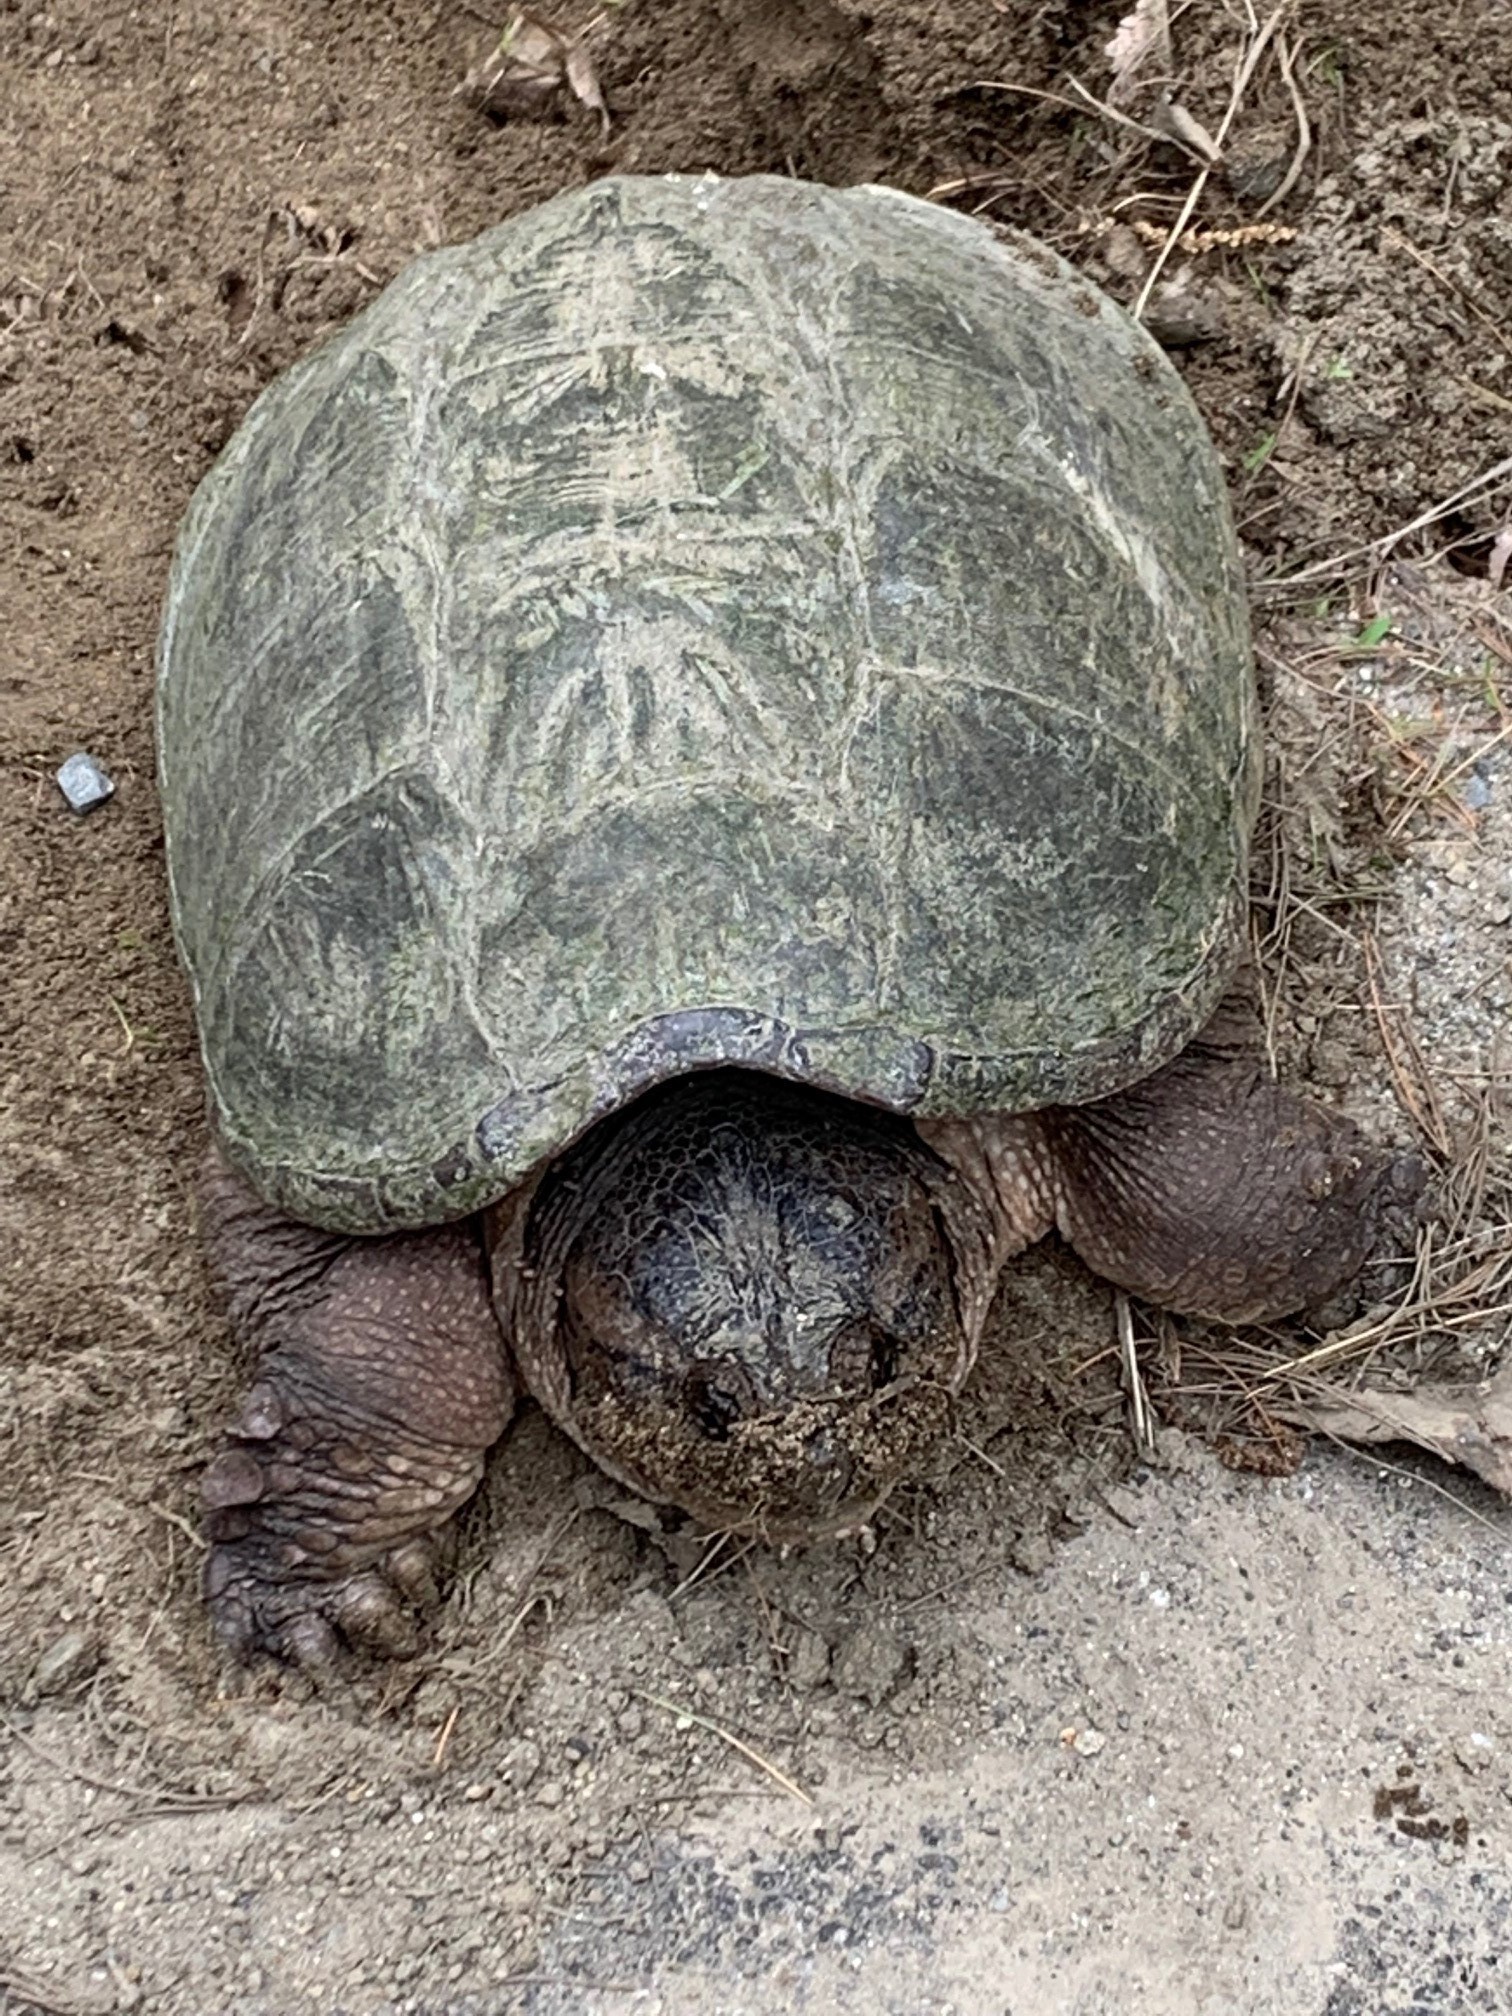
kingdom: Animalia
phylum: Chordata
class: Testudines
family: Chelydridae
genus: Chelydra
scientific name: Chelydra serpentina
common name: Common snapping turtle
